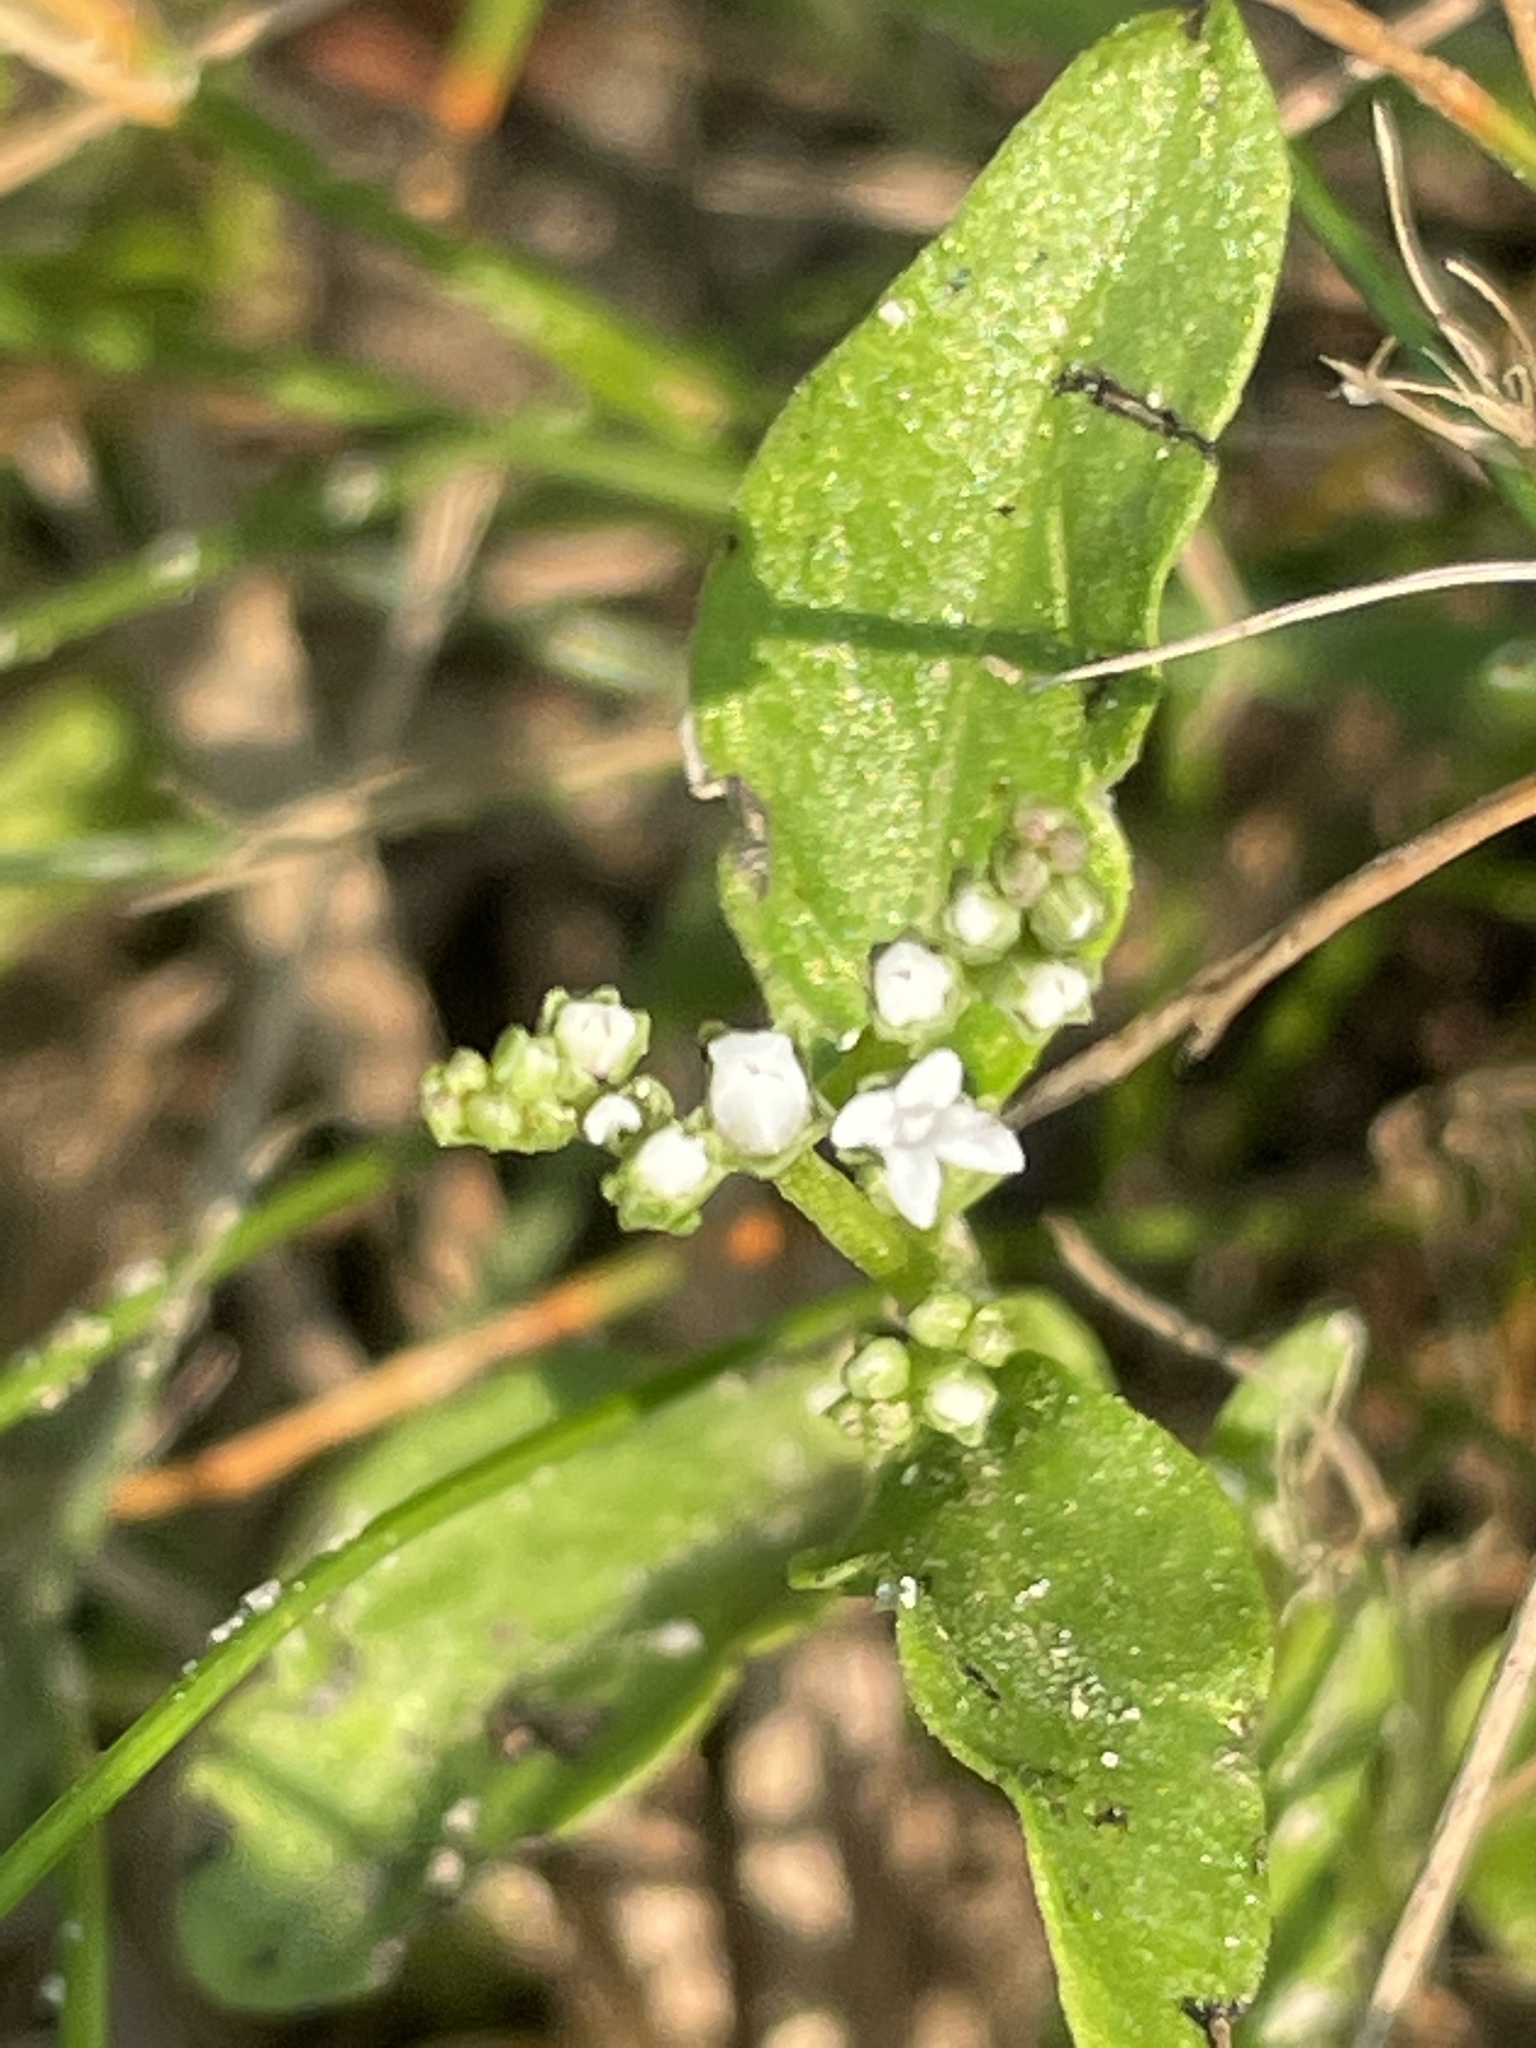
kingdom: Plantae
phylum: Tracheophyta
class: Magnoliopsida
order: Gentianales
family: Loganiaceae
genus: Mitreola
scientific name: Mitreola petiolata
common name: Lax hornpod
